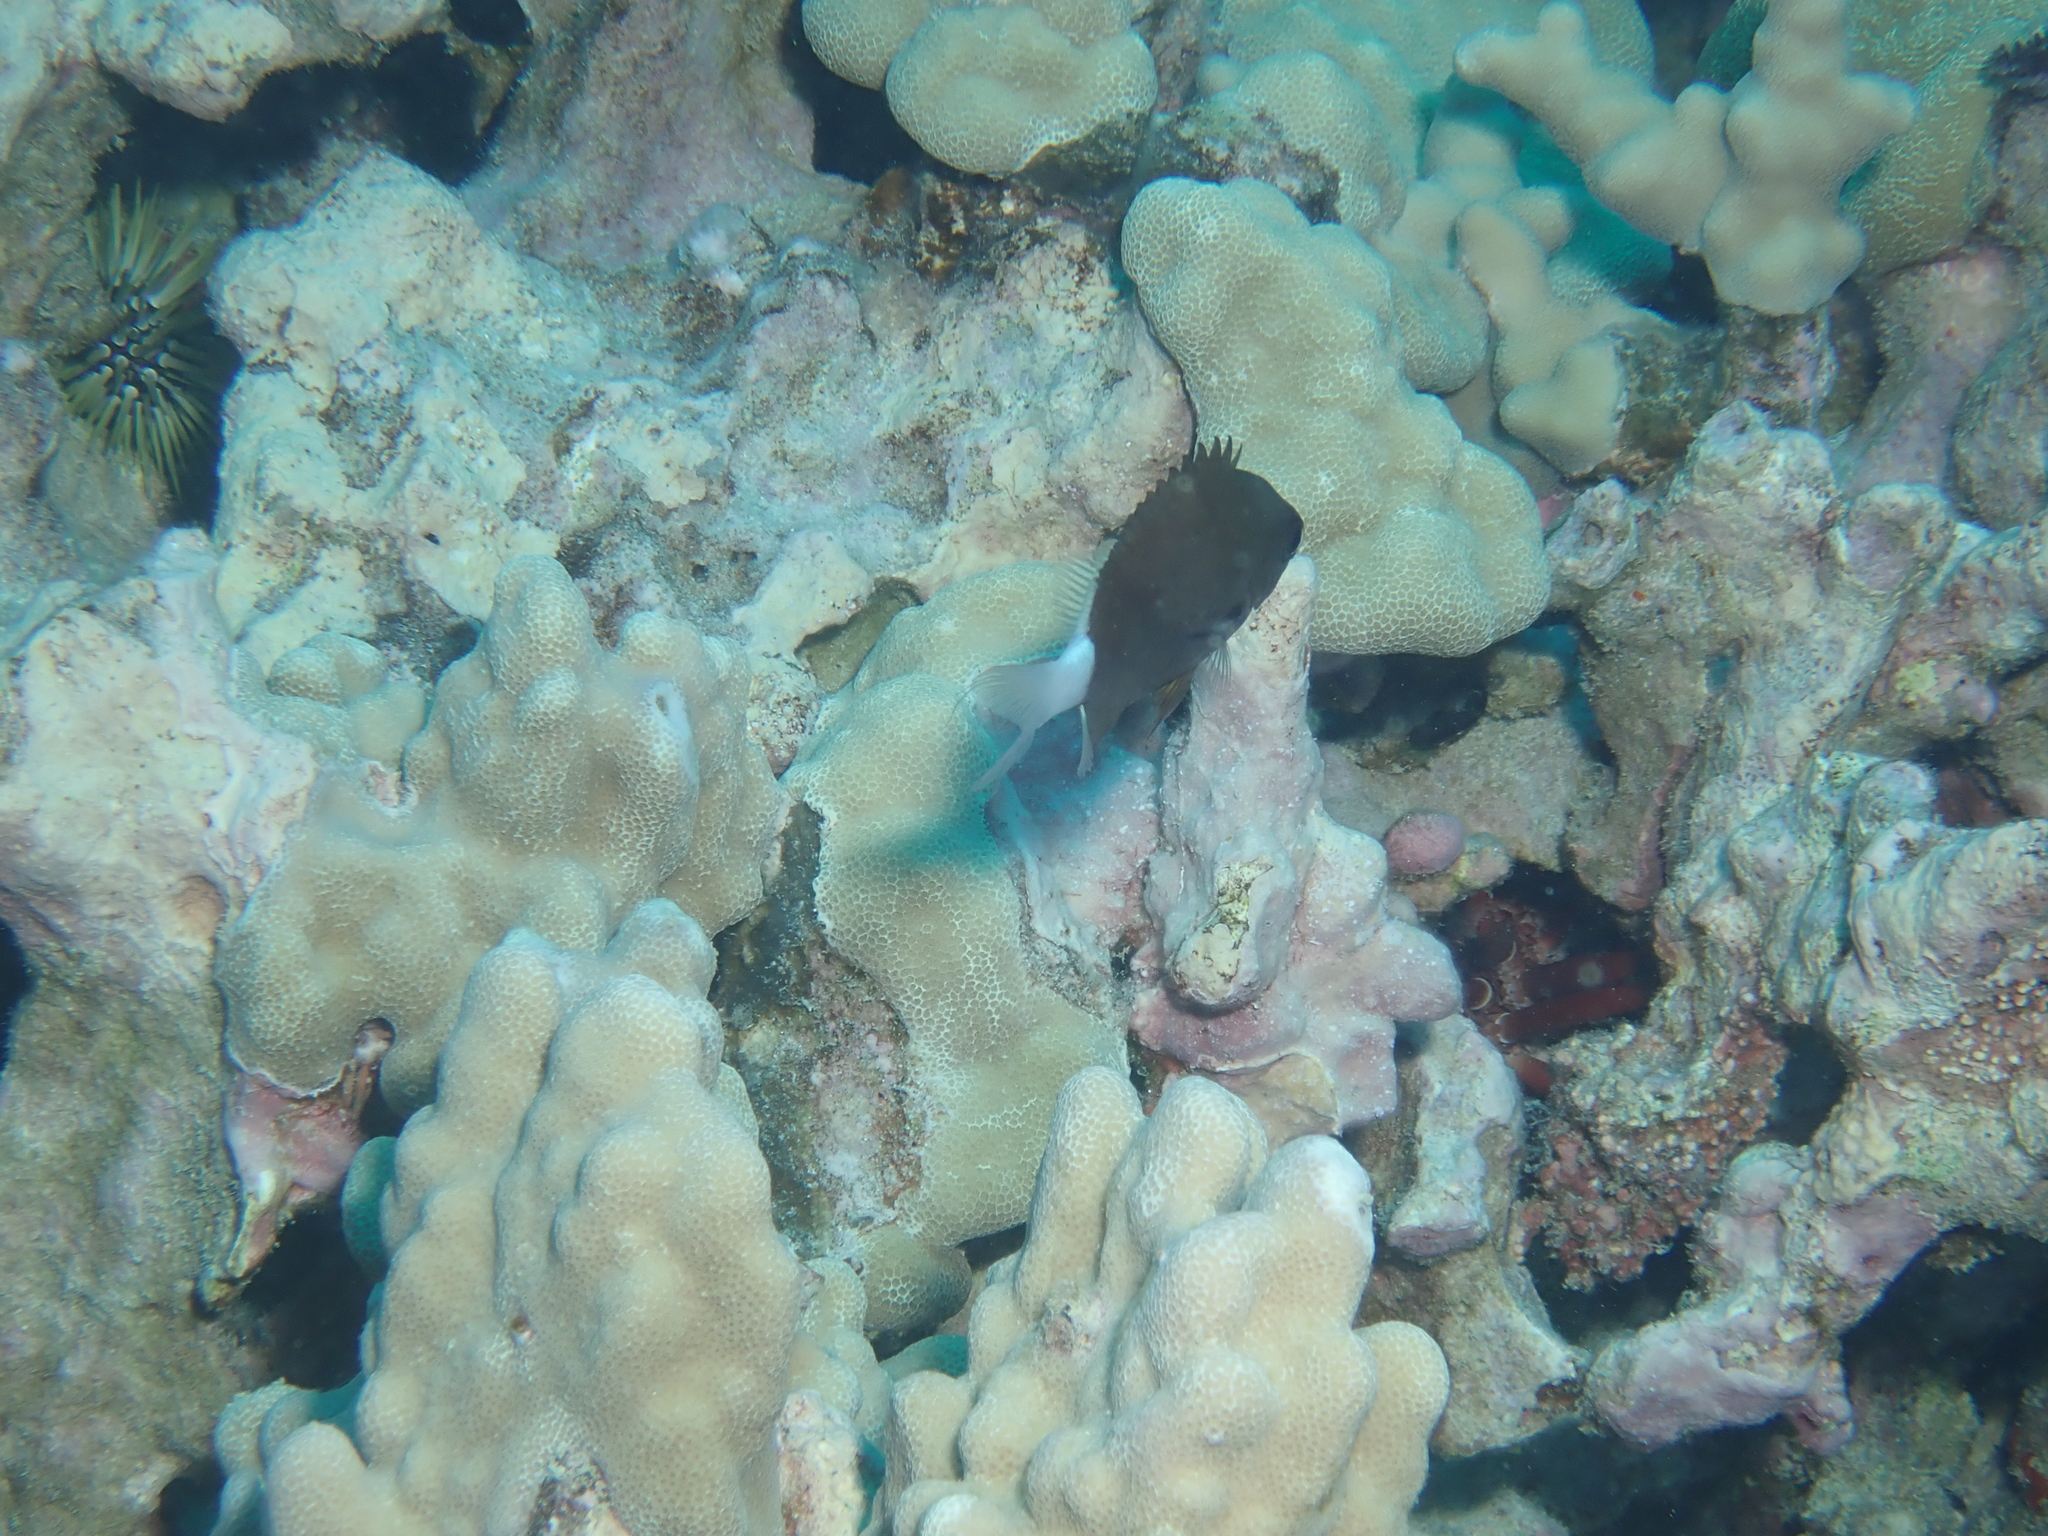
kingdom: Animalia
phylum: Chordata
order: Perciformes
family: Pomacentridae
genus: Chromis
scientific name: Chromis hanui
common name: Chocolate dip damsel
